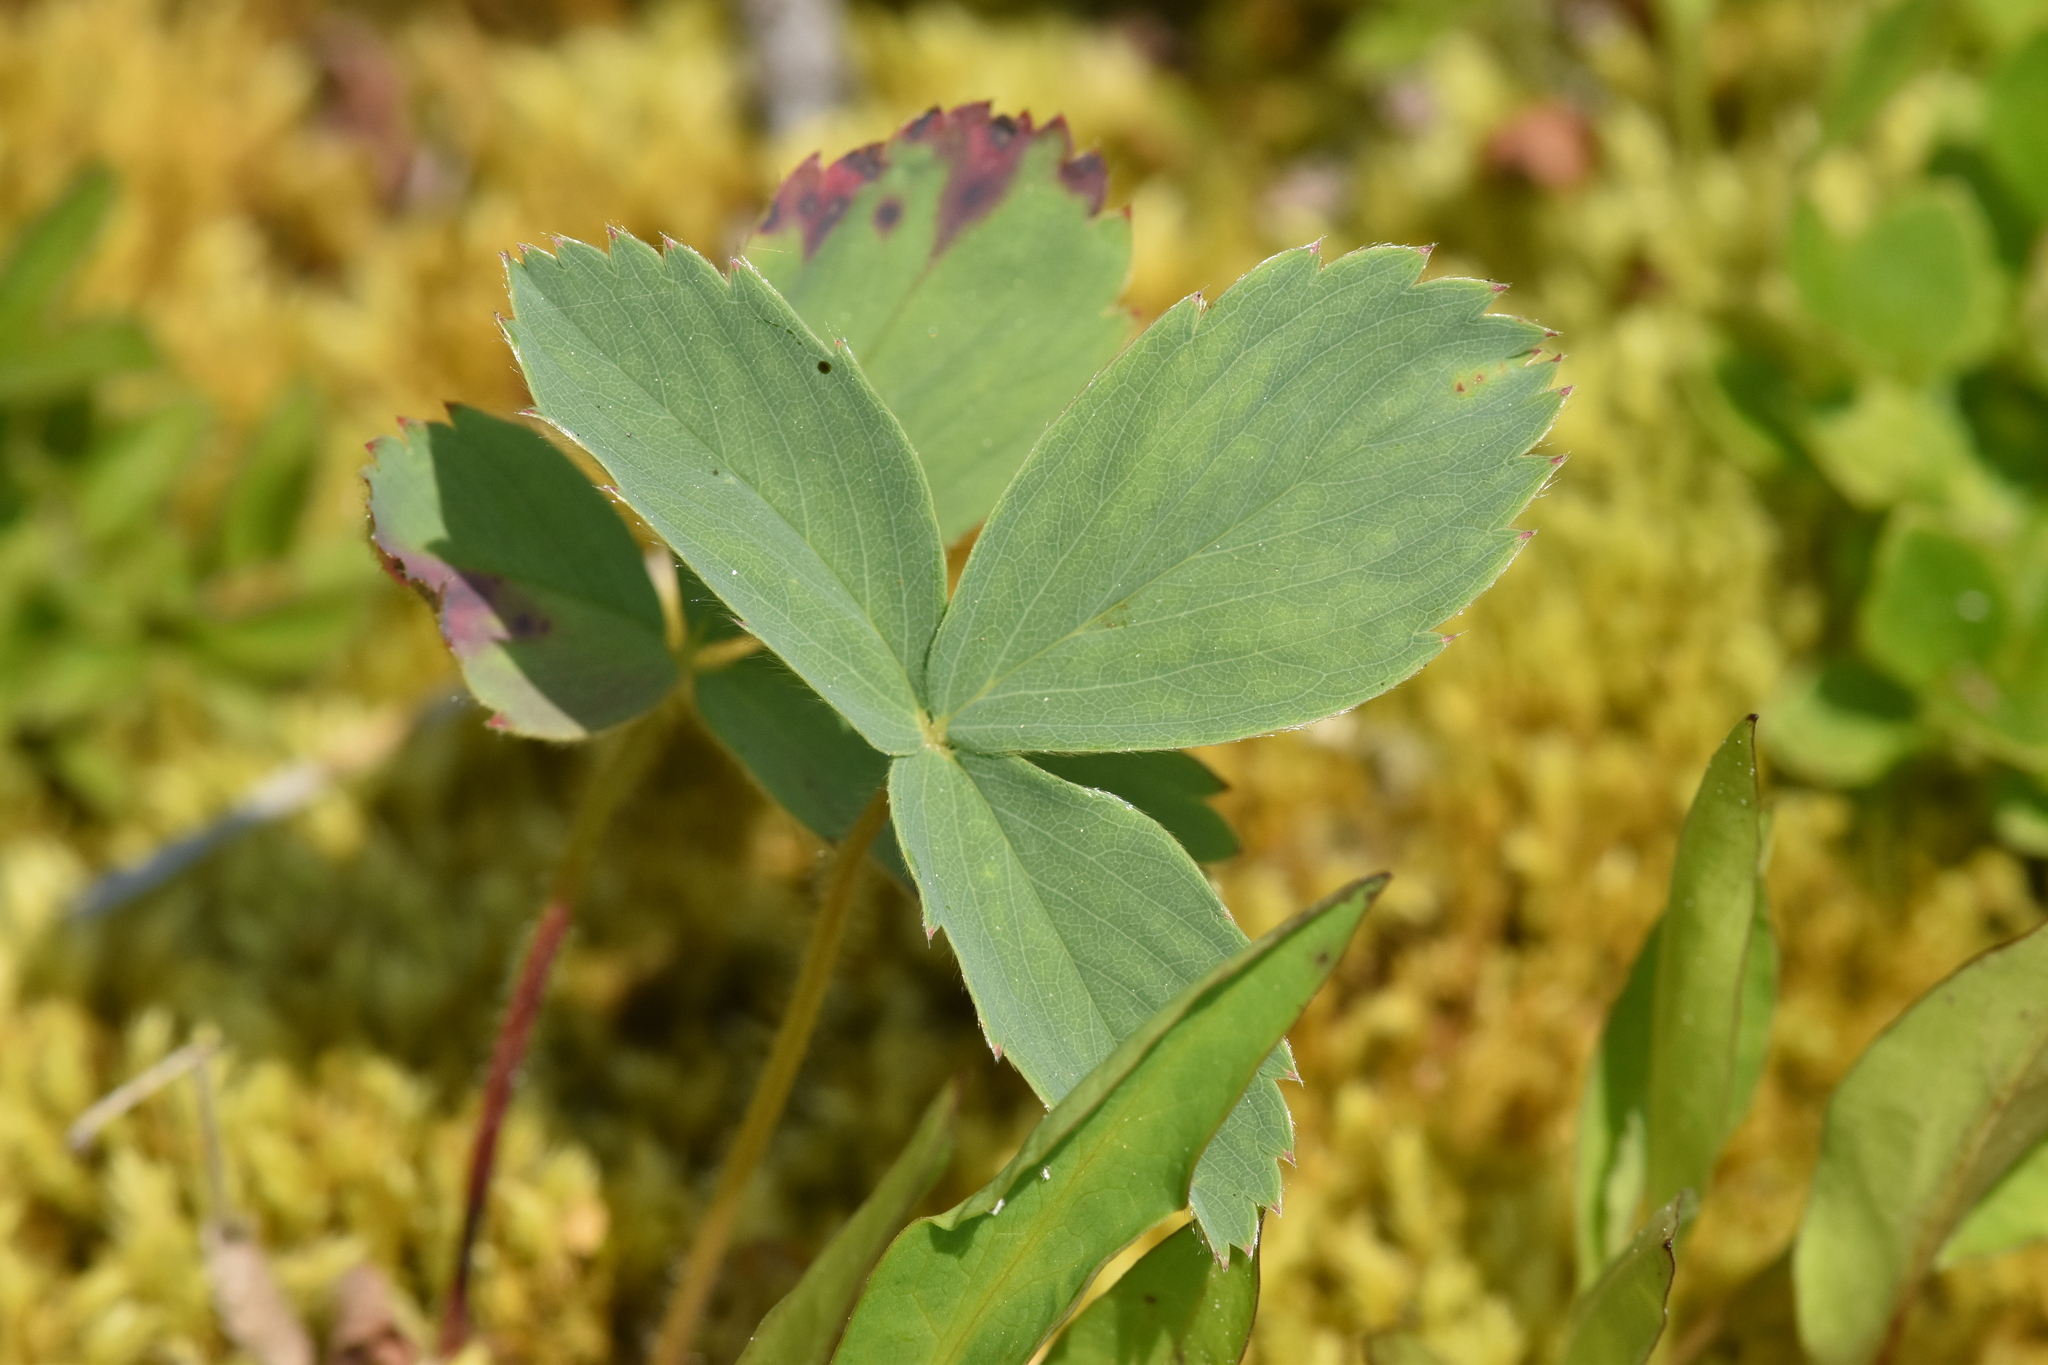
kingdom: Plantae
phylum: Tracheophyta
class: Magnoliopsida
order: Rosales
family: Rosaceae
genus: Fragaria
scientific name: Fragaria virginiana
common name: Thickleaved wild strawberry
